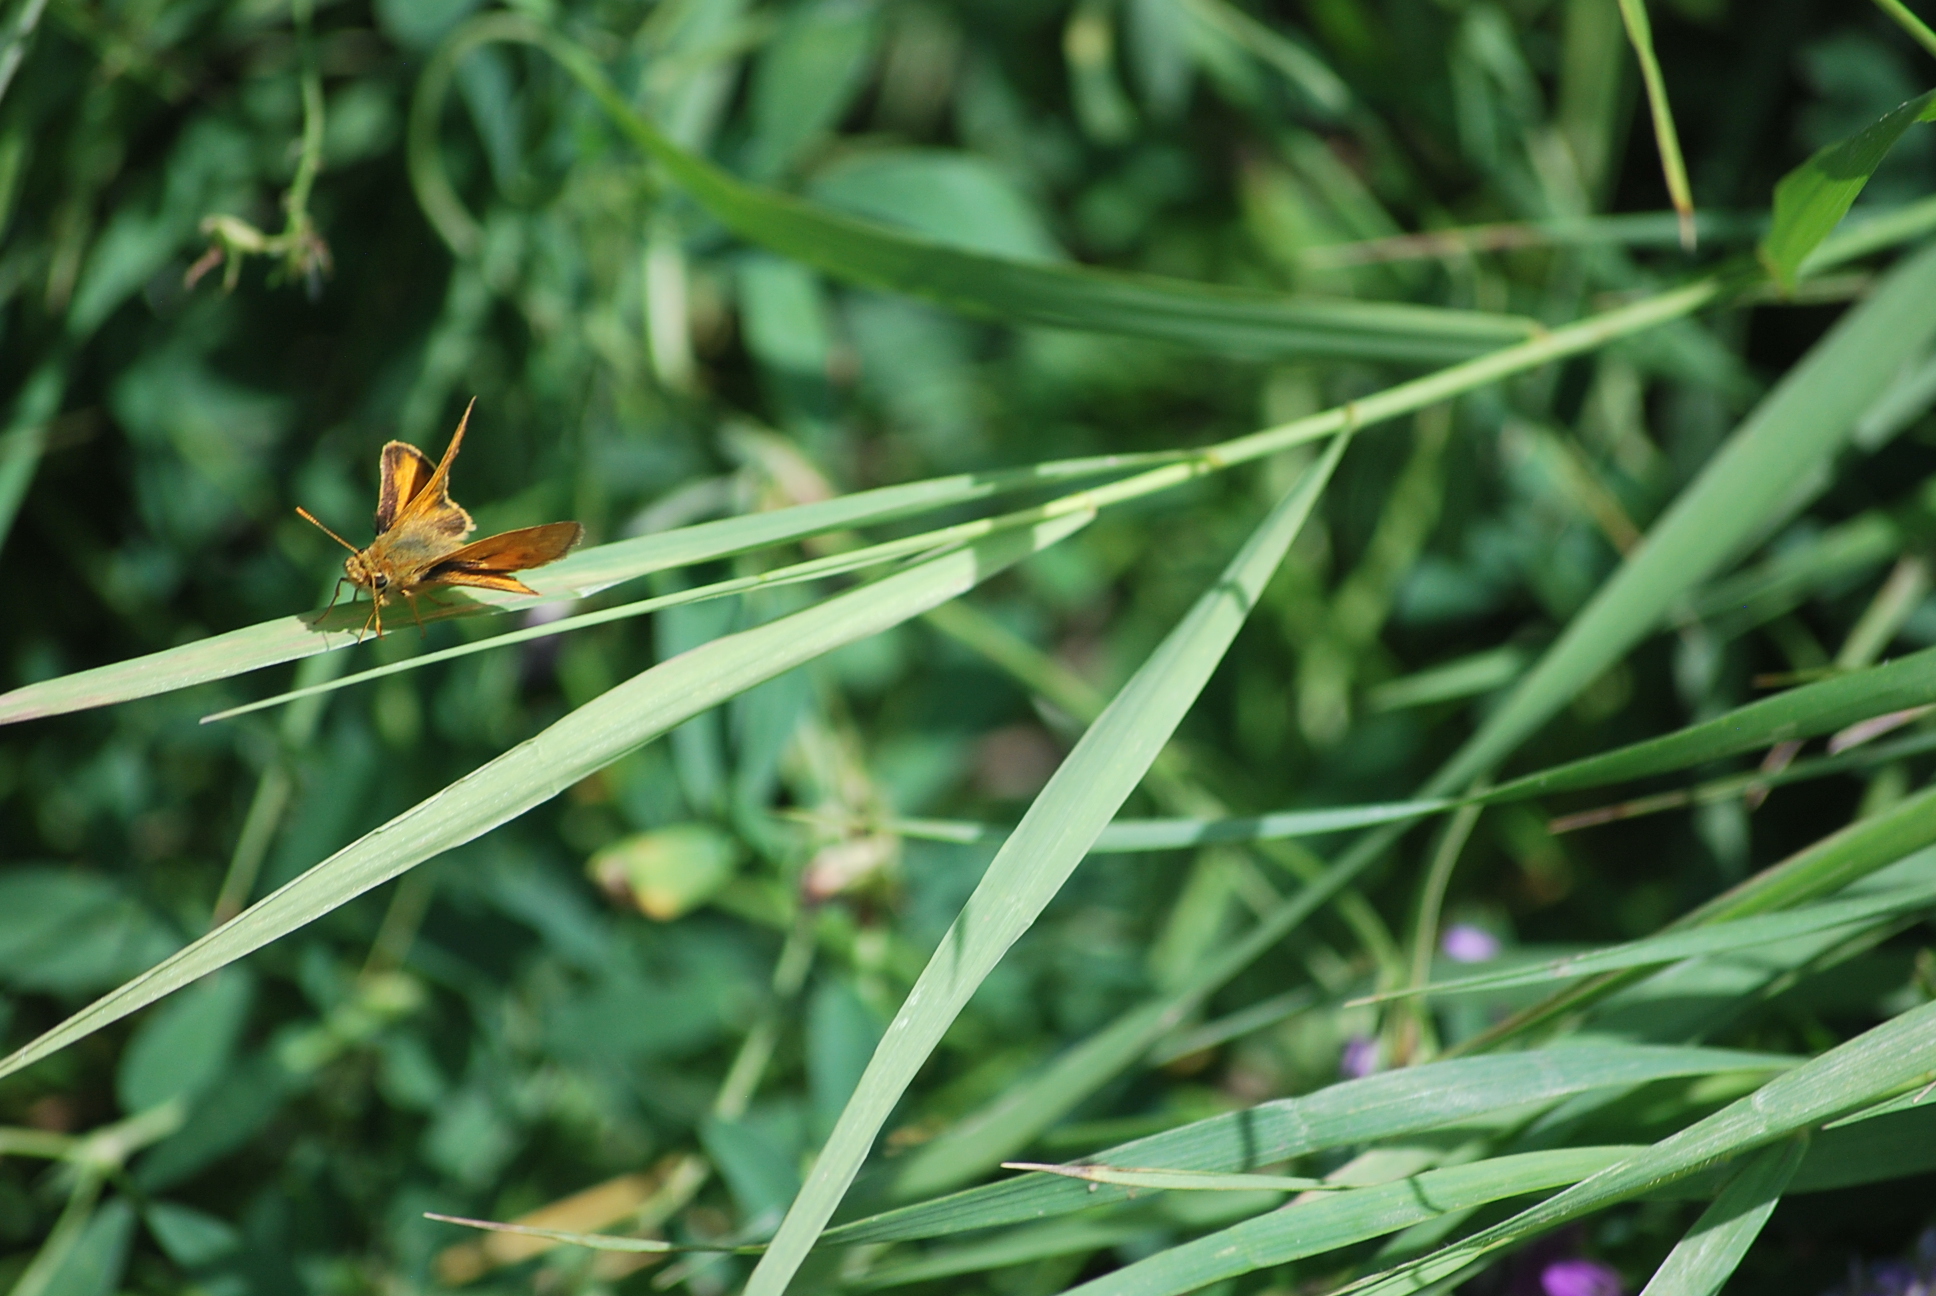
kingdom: Animalia
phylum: Arthropoda
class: Insecta
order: Lepidoptera
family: Hesperiidae
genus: Ochlodes
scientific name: Ochlodes sylvanoides
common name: Woodland skipper
